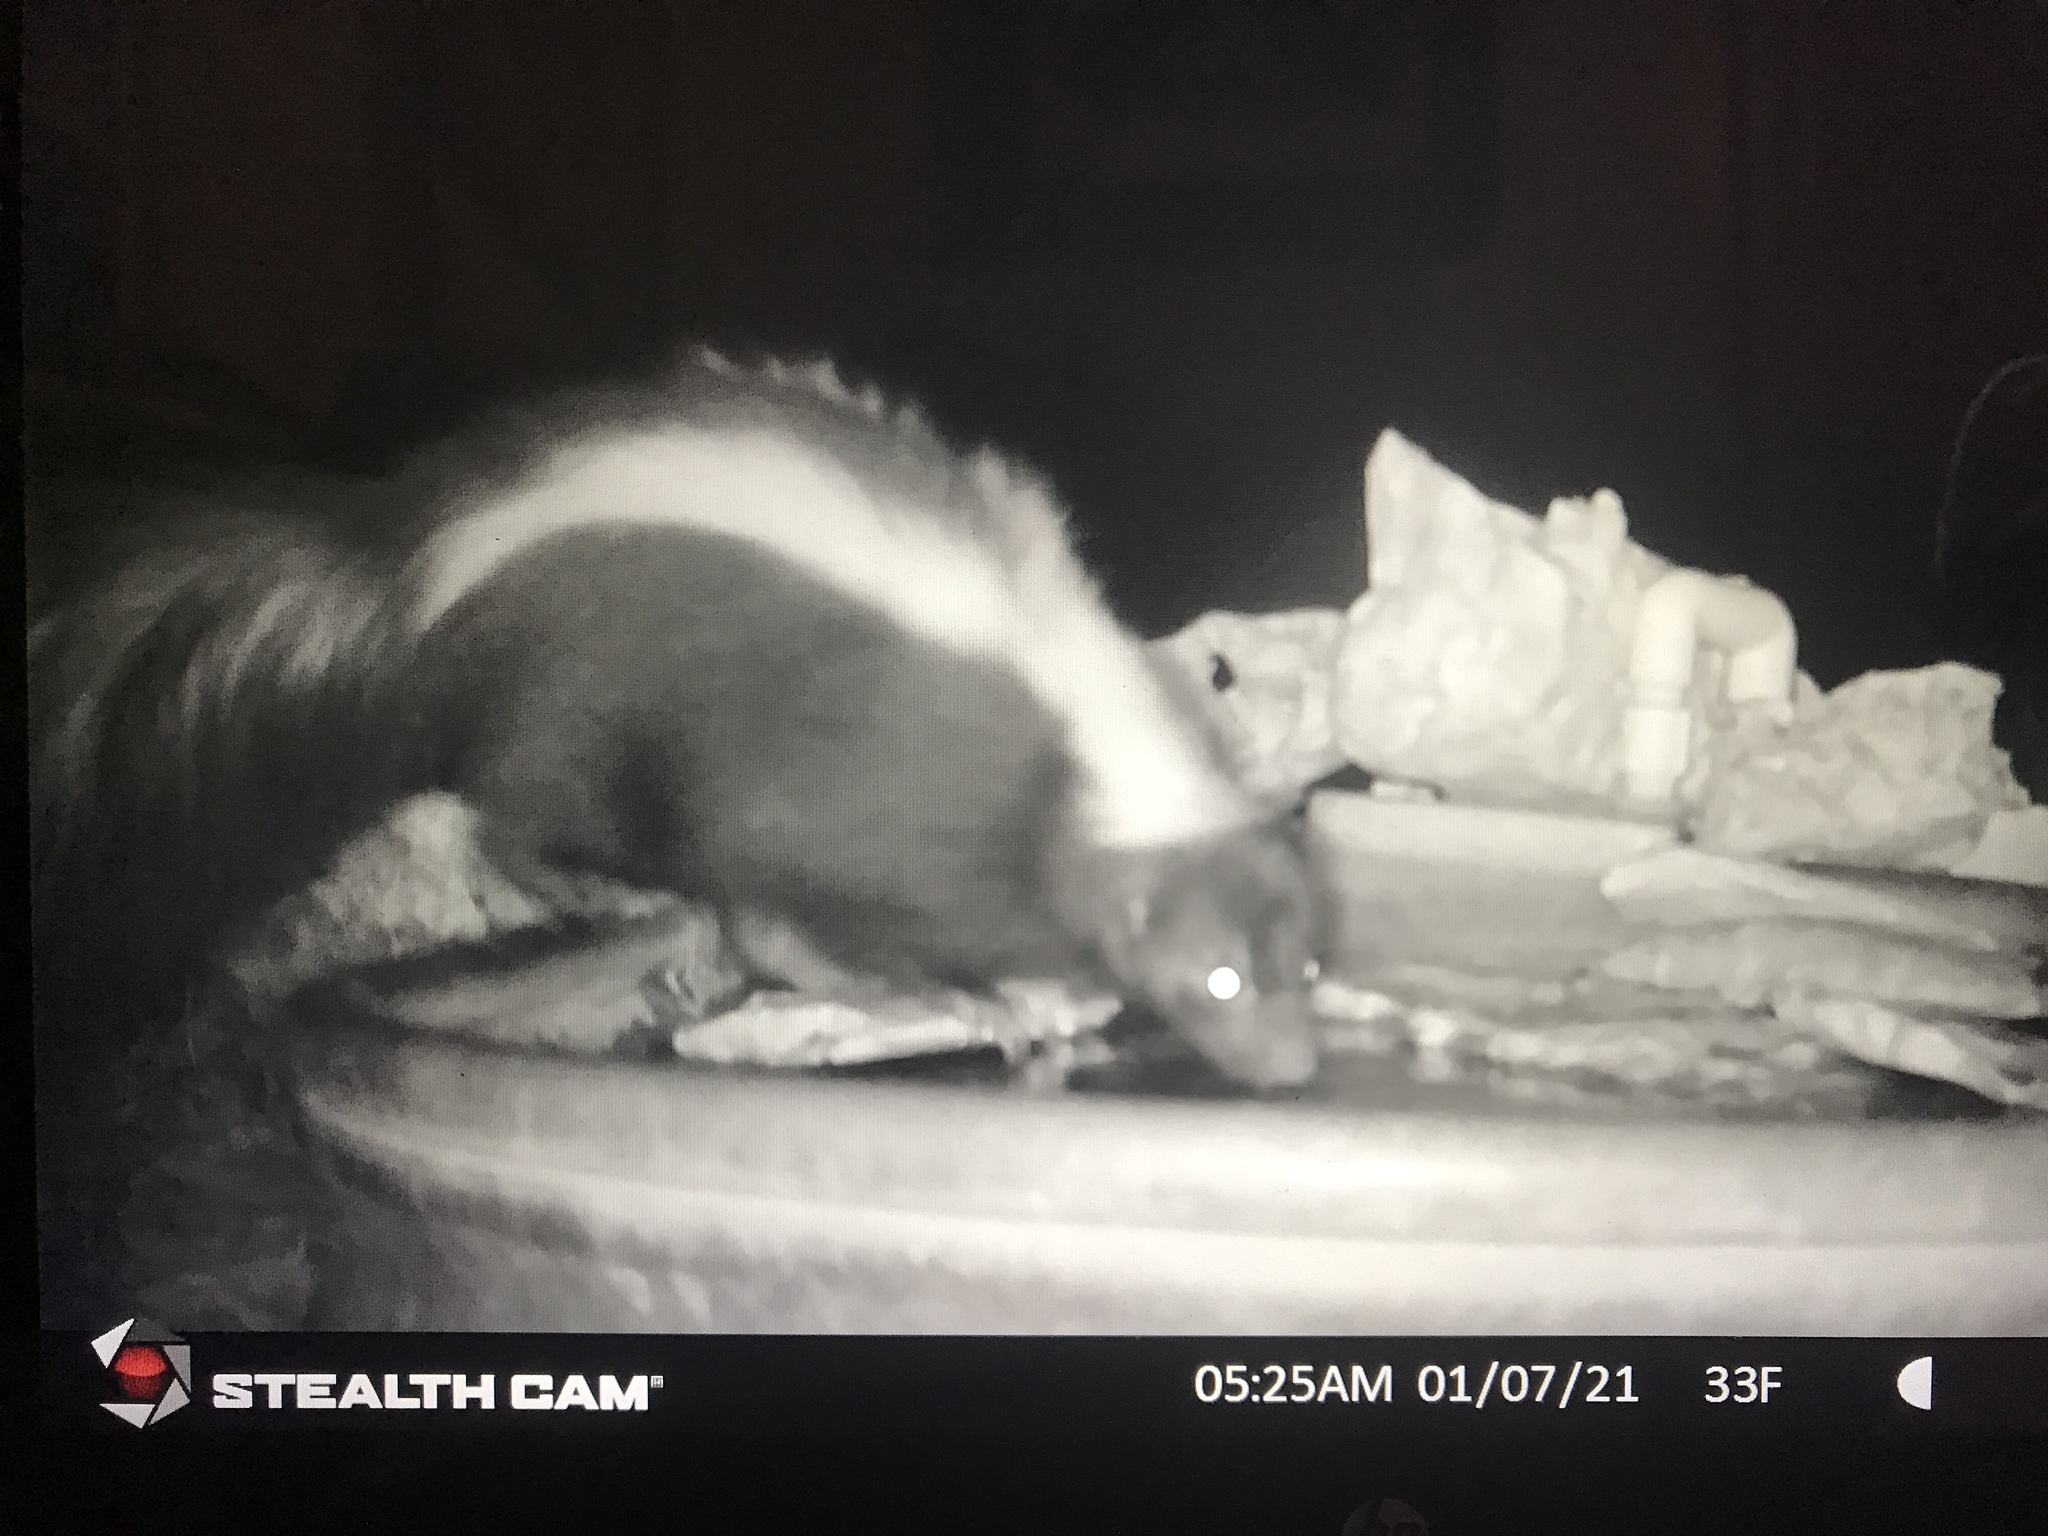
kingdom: Animalia
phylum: Chordata
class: Mammalia
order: Carnivora
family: Mephitidae
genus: Mephitis
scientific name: Mephitis mephitis
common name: Striped skunk
